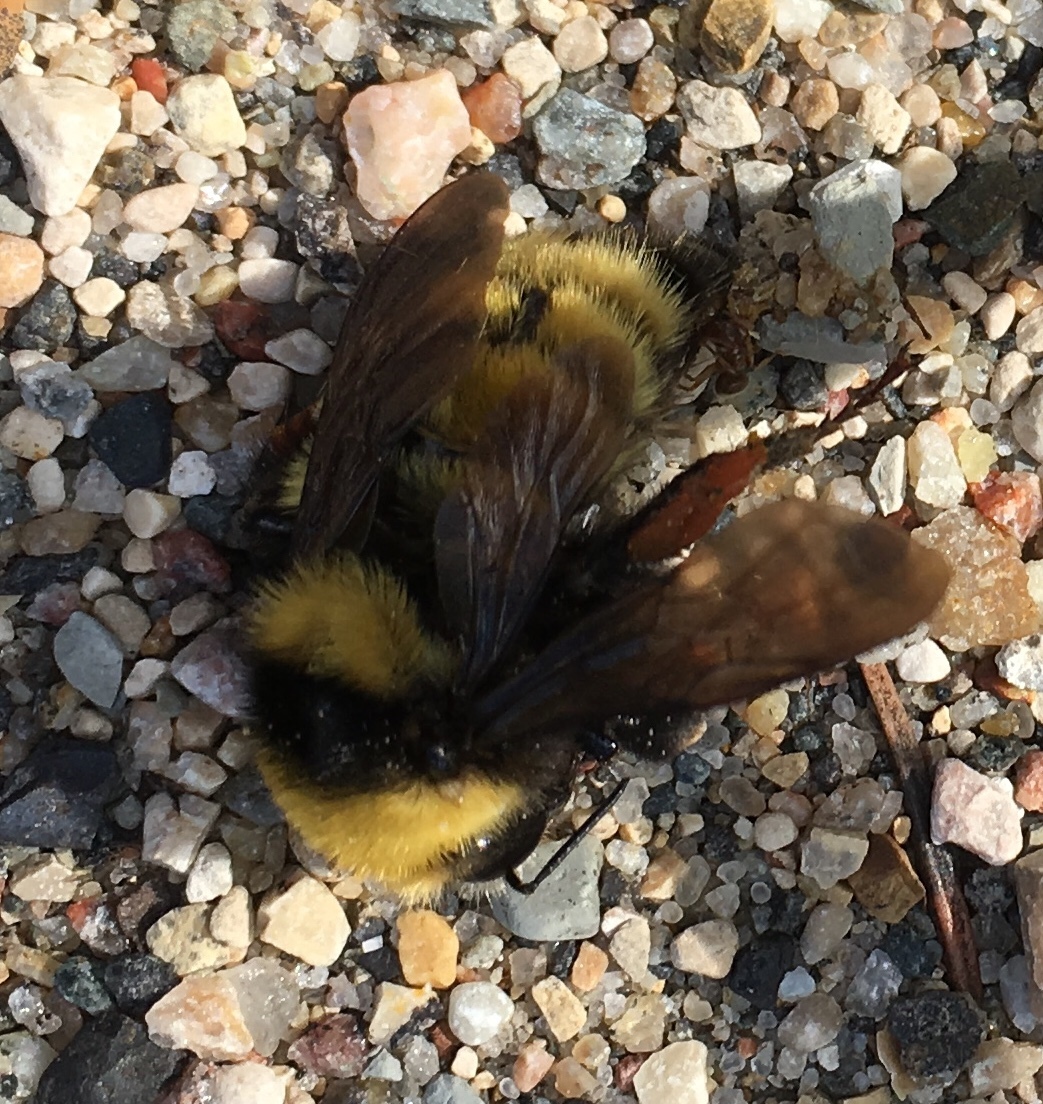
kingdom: Animalia
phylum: Arthropoda
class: Insecta
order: Hymenoptera
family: Apidae
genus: Bombus
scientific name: Bombus borealis
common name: Northern amber bumble bee
